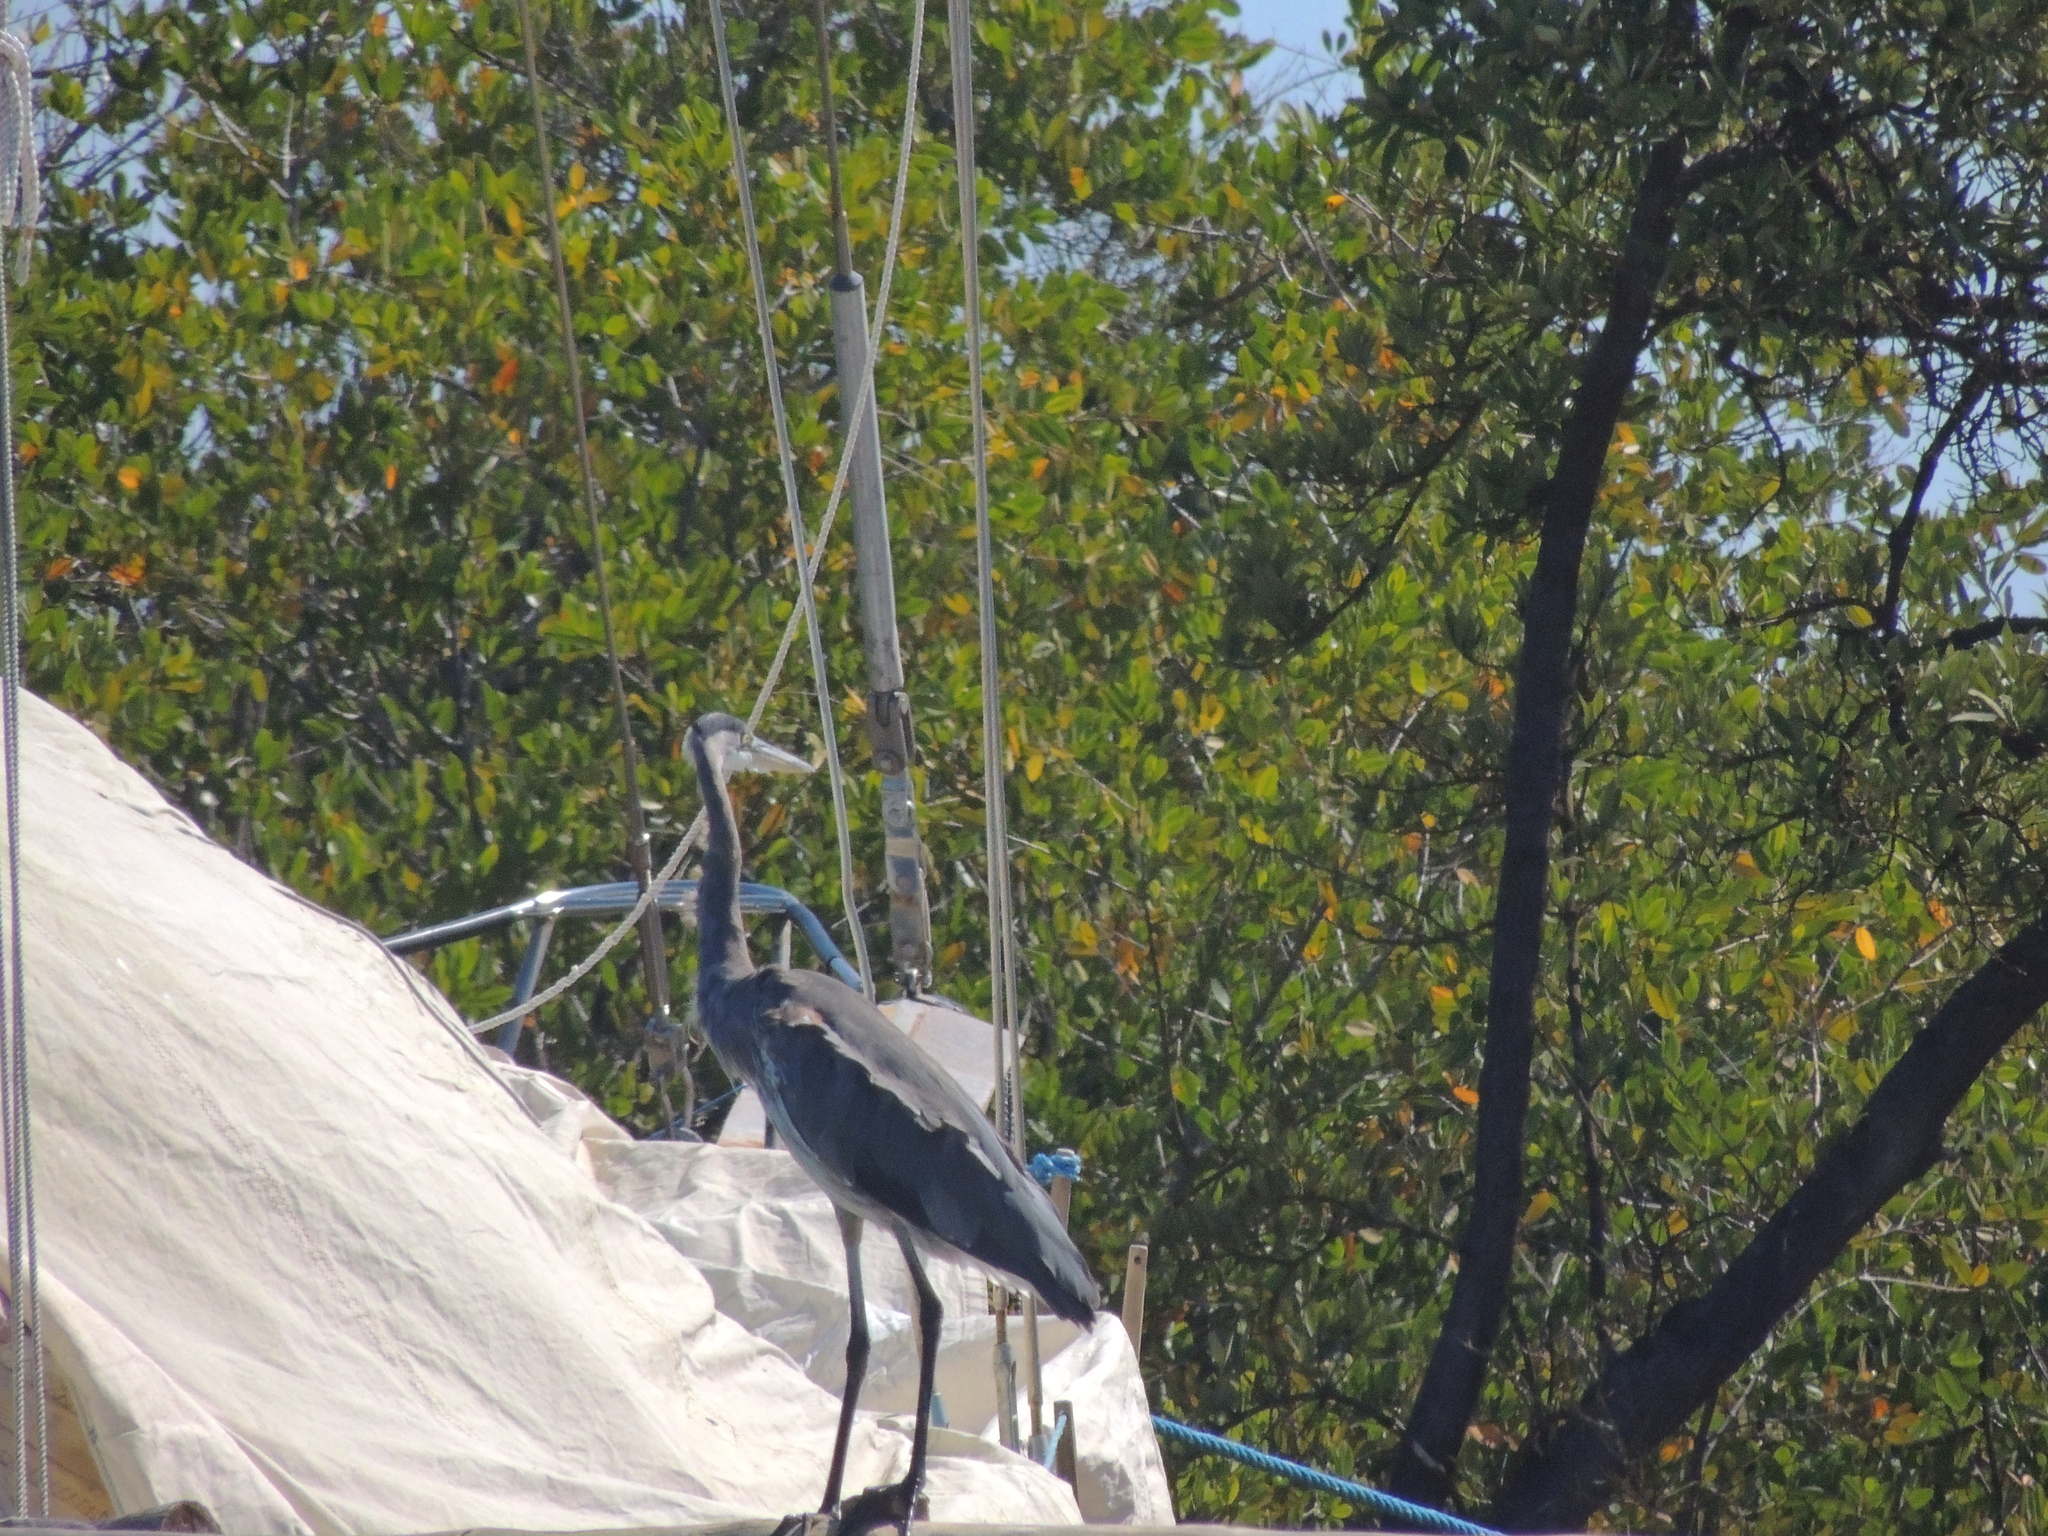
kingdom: Animalia
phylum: Chordata
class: Aves
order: Pelecaniformes
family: Ardeidae
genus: Ardea
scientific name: Ardea herodias
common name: Great blue heron
